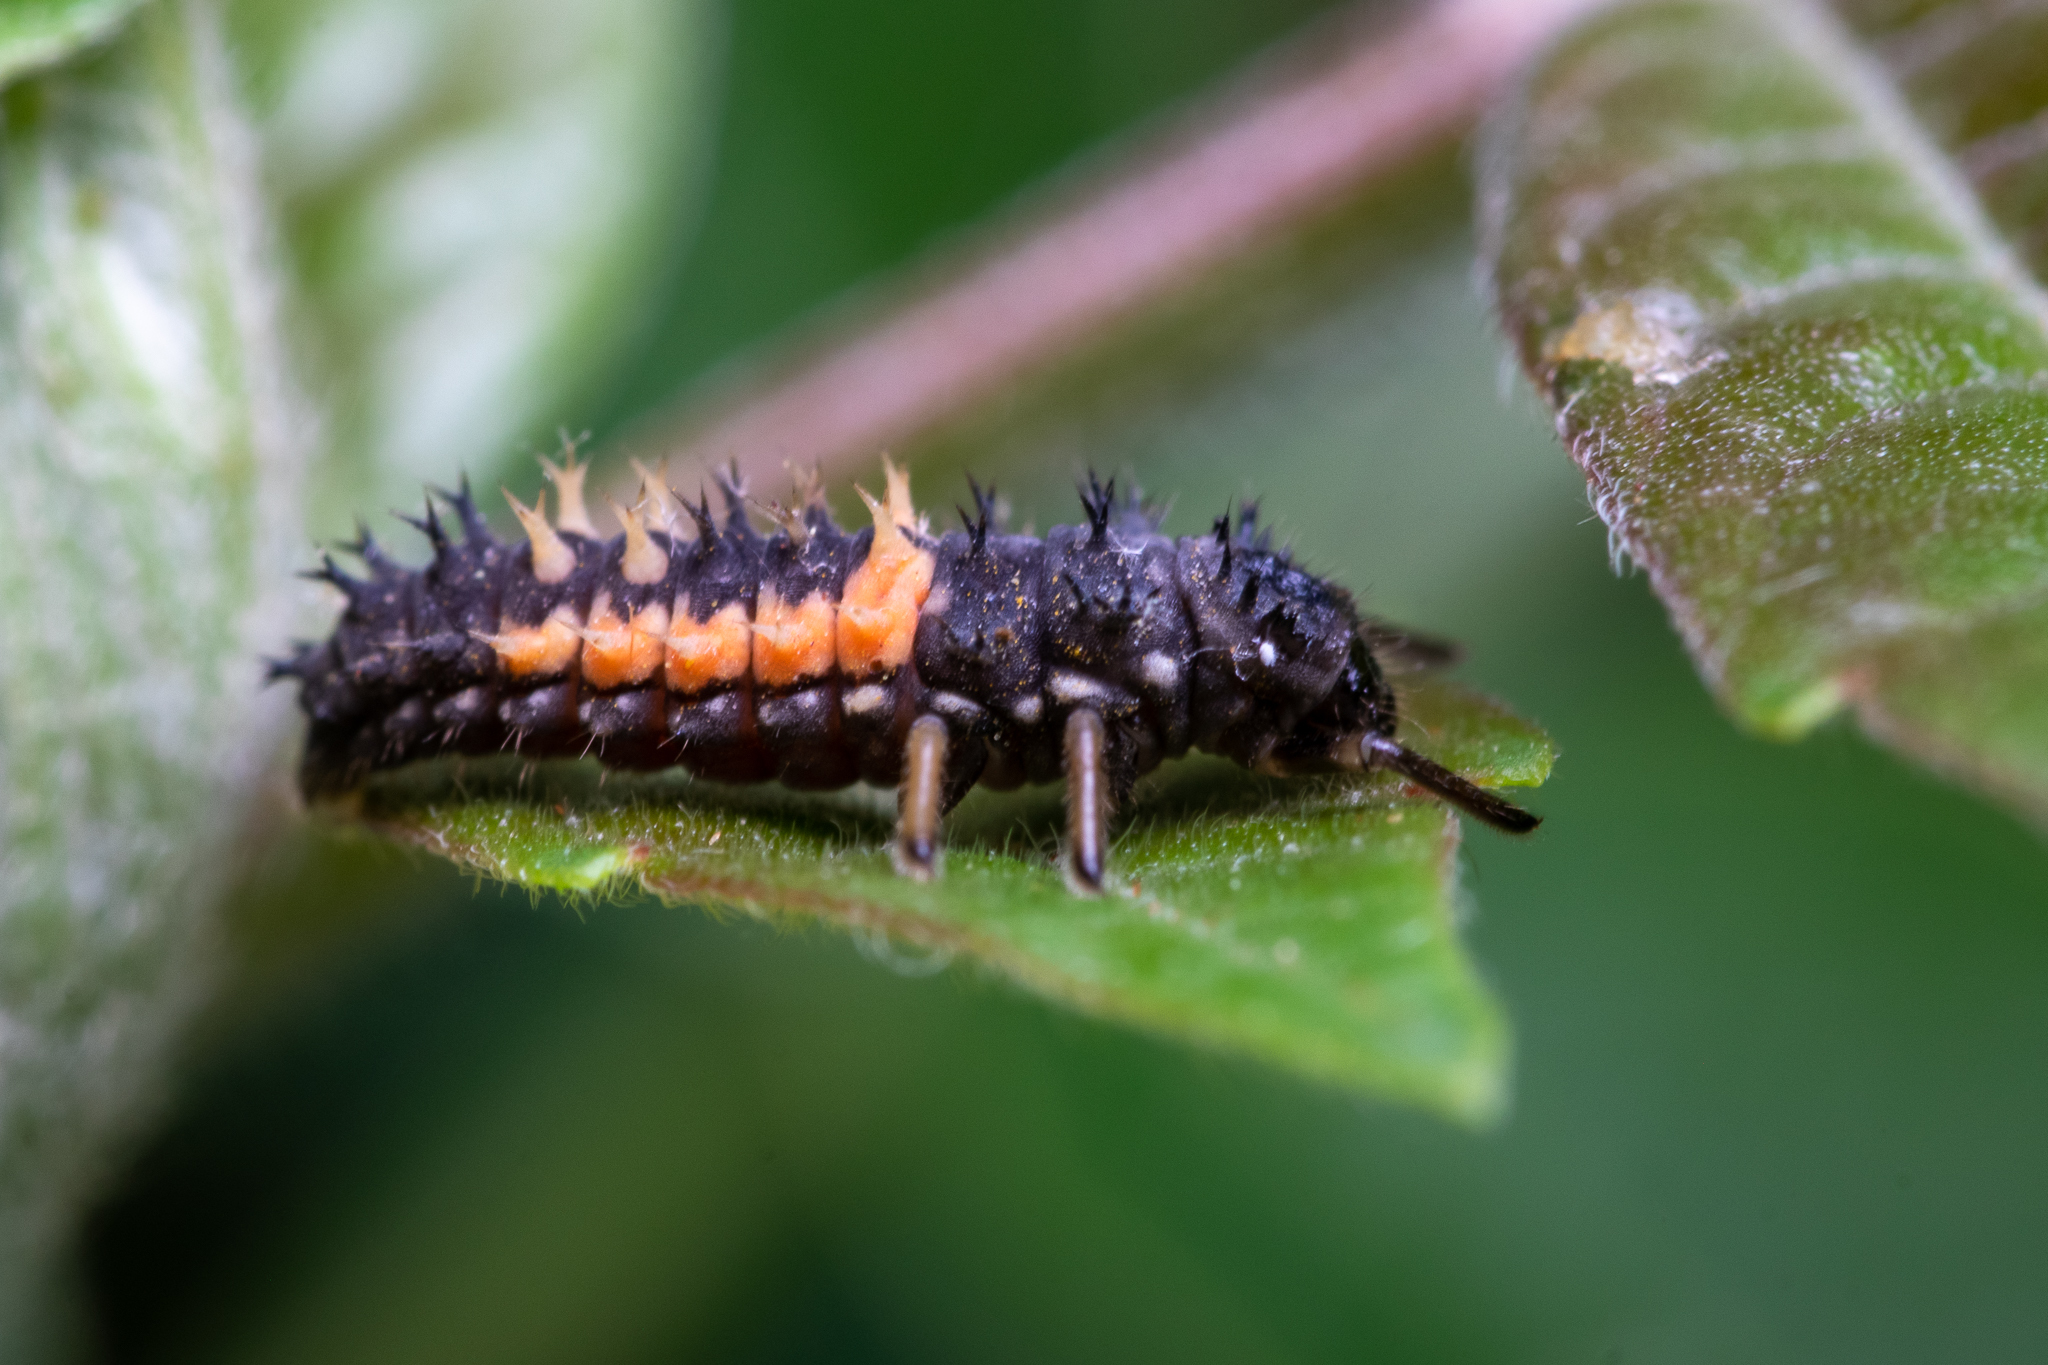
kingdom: Animalia
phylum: Arthropoda
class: Insecta
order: Coleoptera
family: Coccinellidae
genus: Harmonia
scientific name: Harmonia axyridis
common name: Harlequin ladybird
